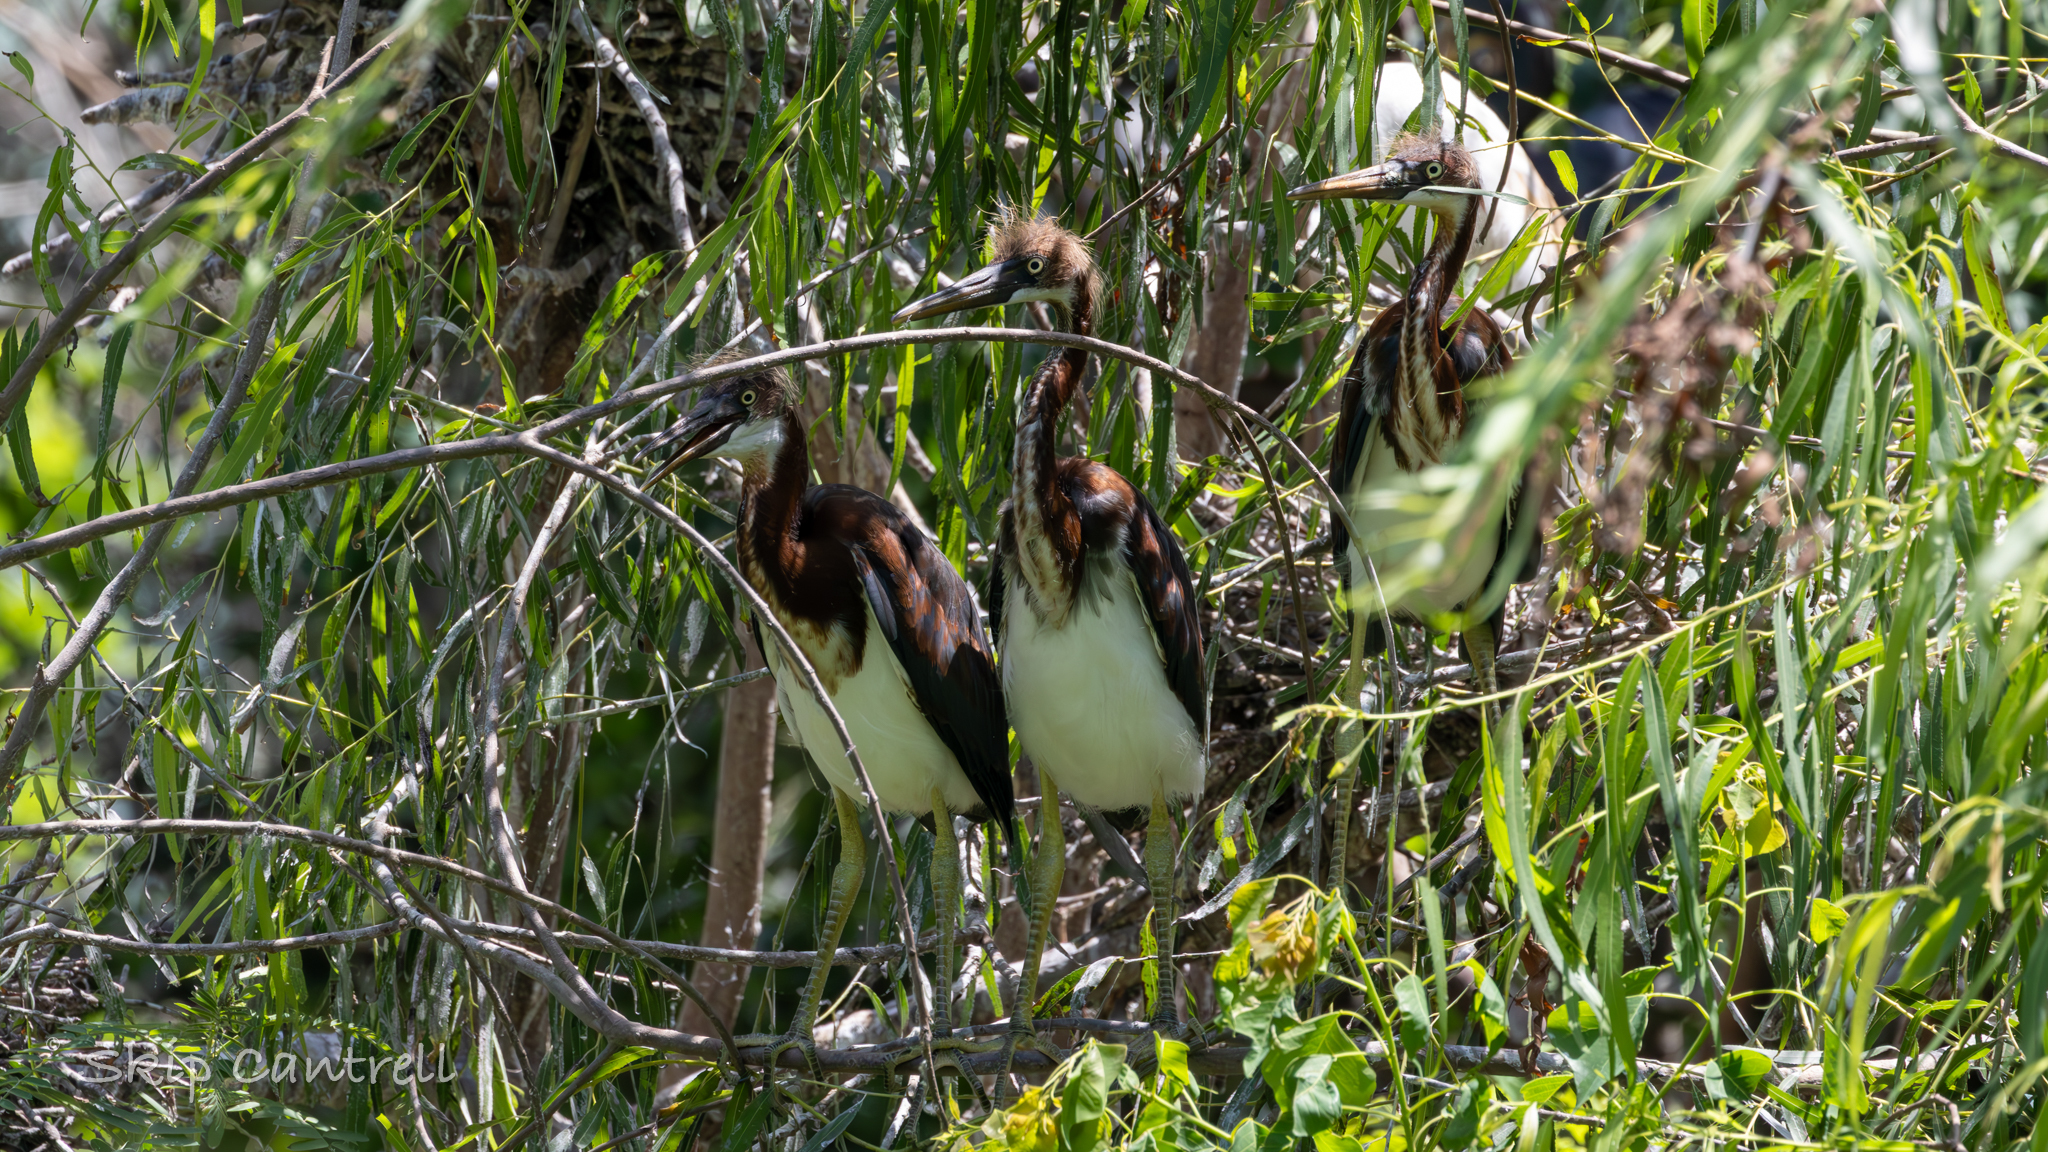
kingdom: Animalia
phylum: Chordata
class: Aves
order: Pelecaniformes
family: Ardeidae
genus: Egretta
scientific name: Egretta tricolor
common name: Tricolored heron
